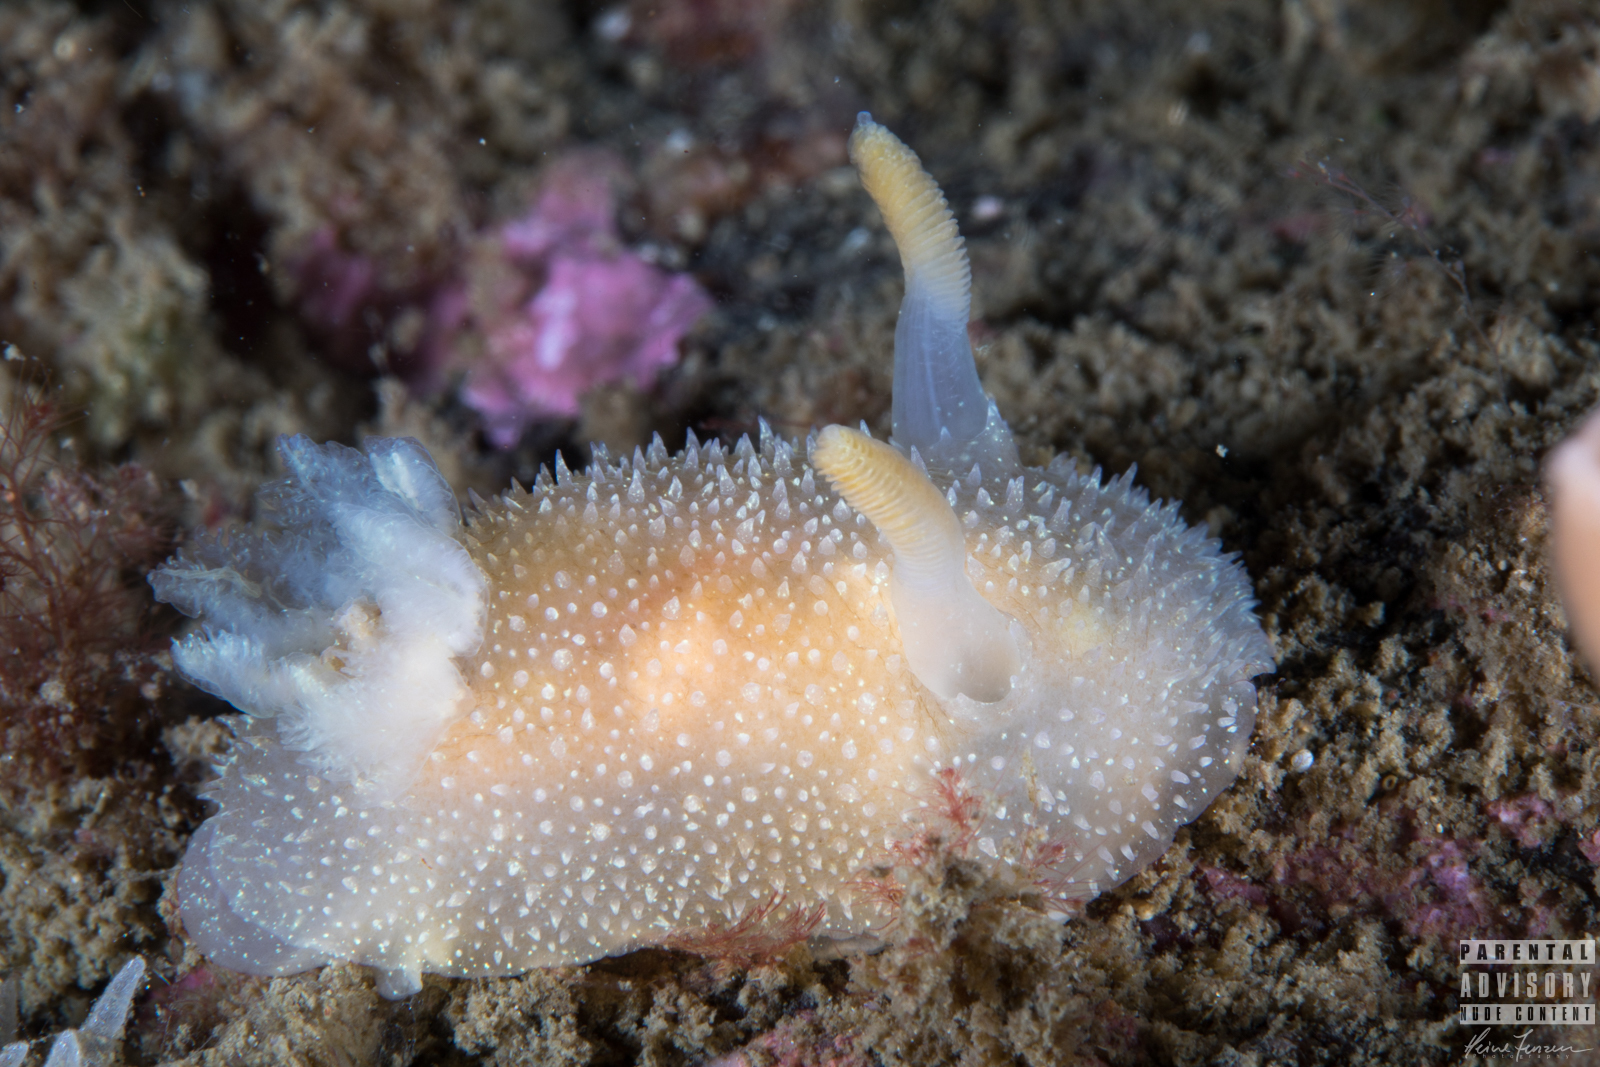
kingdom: Animalia
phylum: Mollusca
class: Gastropoda
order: Nudibranchia
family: Onchidorididae
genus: Acanthodoris
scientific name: Acanthodoris pilosa
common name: Hairy spiny doris
